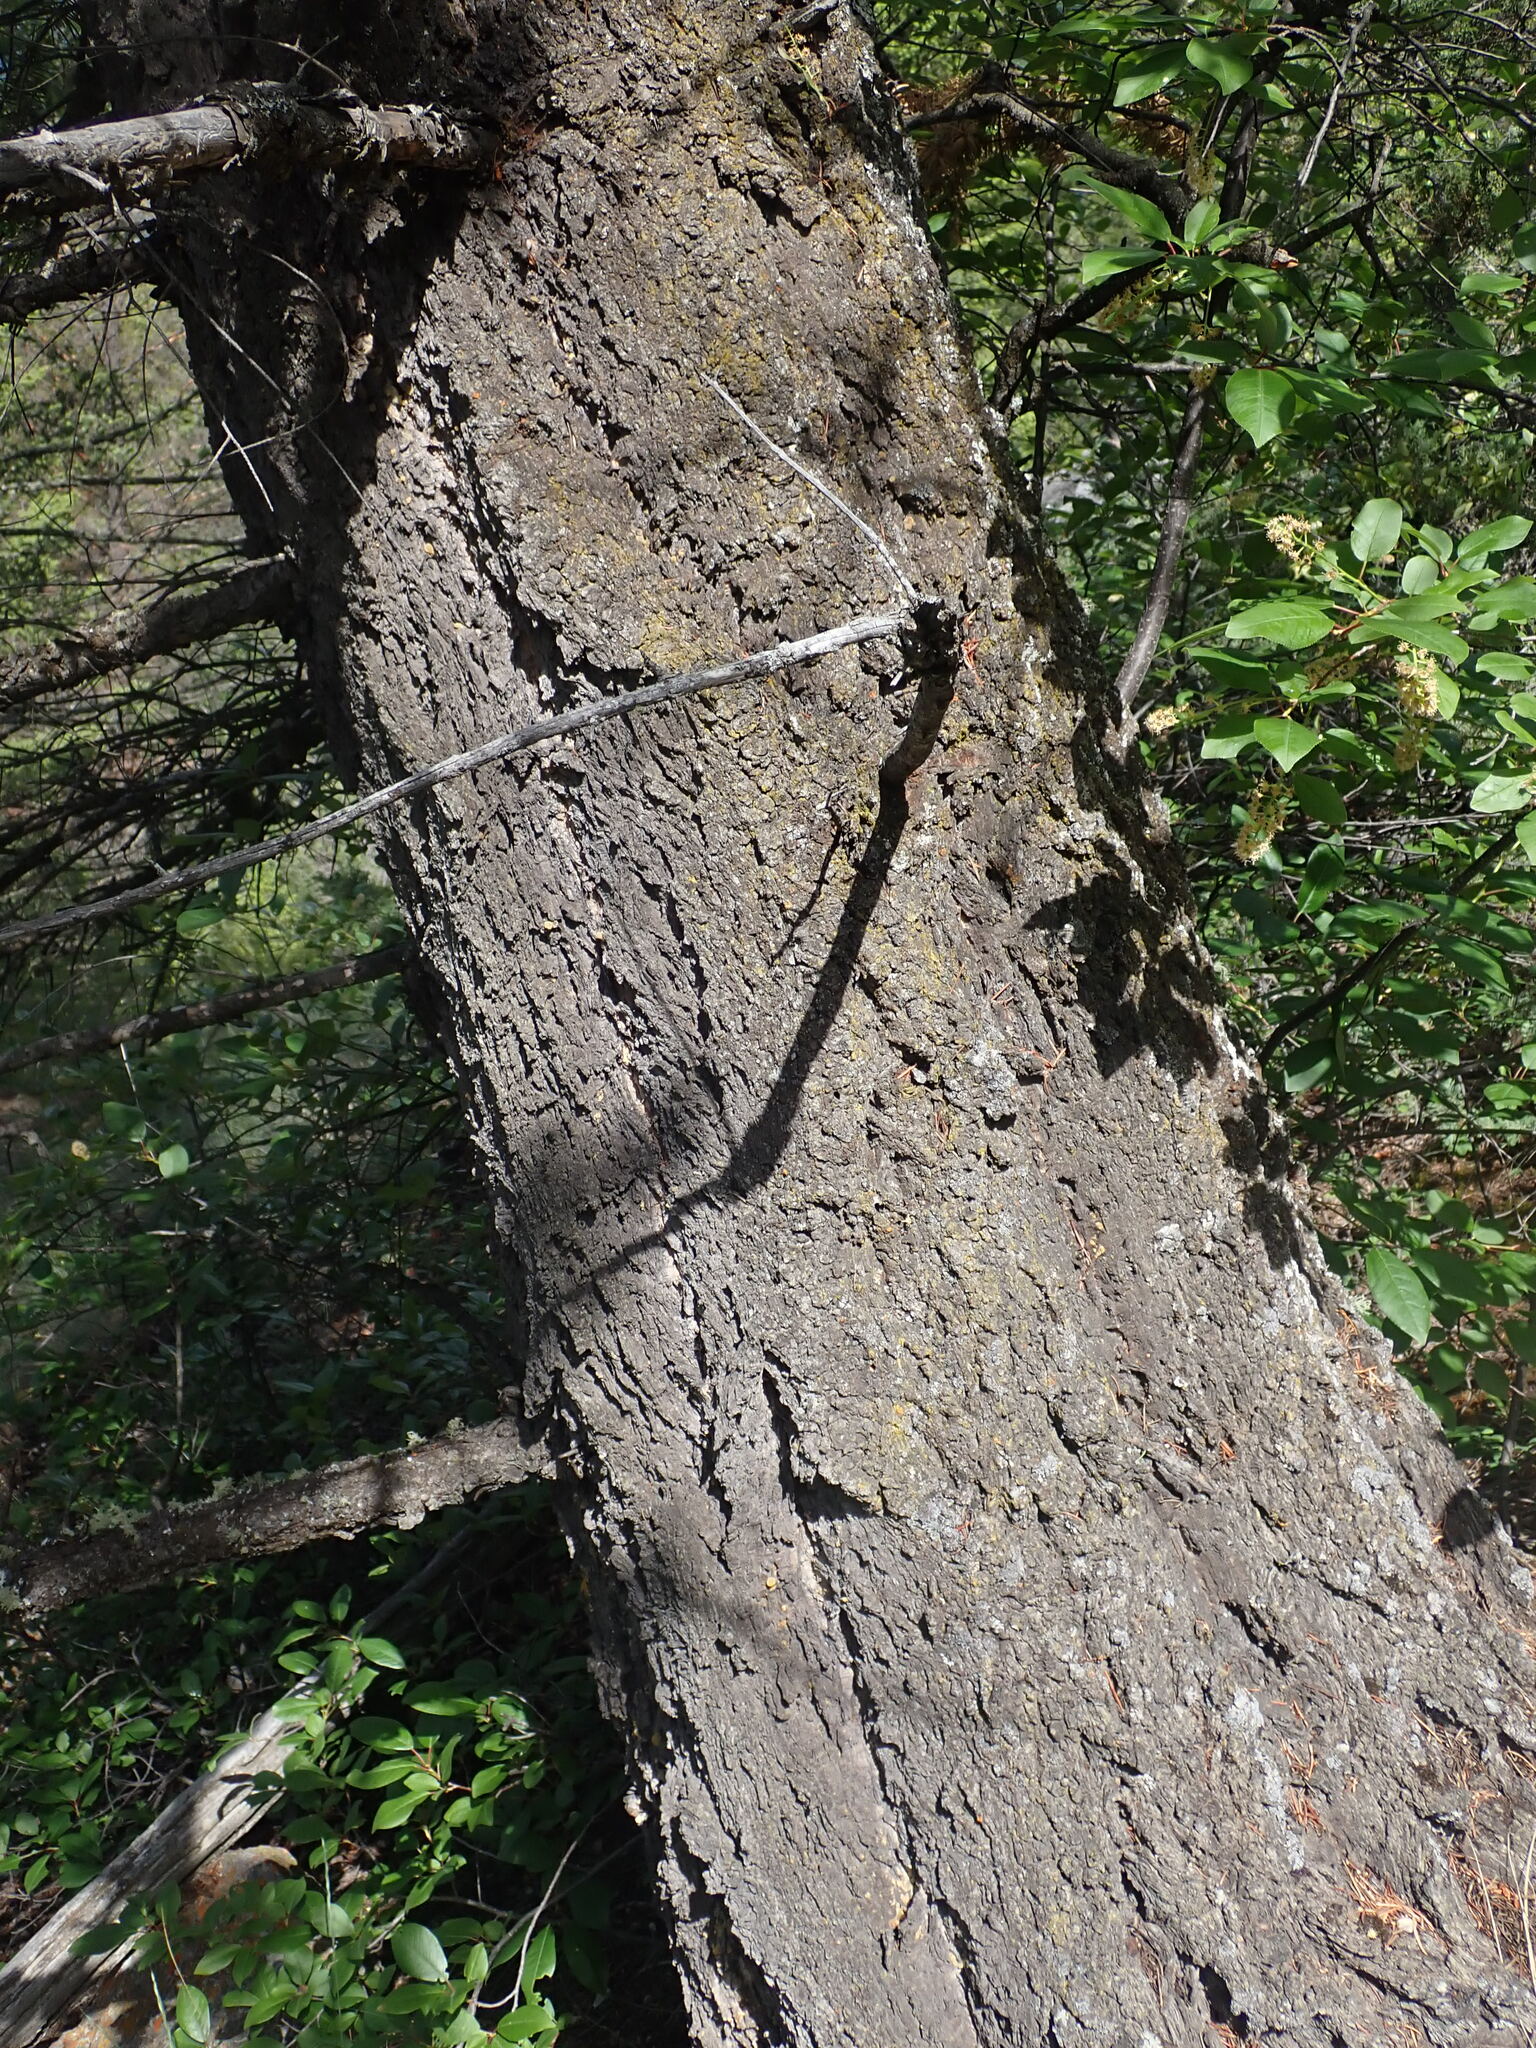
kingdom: Plantae
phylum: Tracheophyta
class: Pinopsida
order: Pinales
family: Pinaceae
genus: Pseudotsuga
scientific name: Pseudotsuga menziesii
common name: Douglas fir
